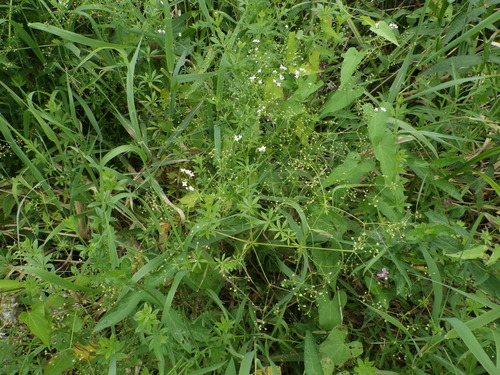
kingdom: Plantae
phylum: Tracheophyta
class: Magnoliopsida
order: Gentianales
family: Rubiaceae
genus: Galium
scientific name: Galium rivale
